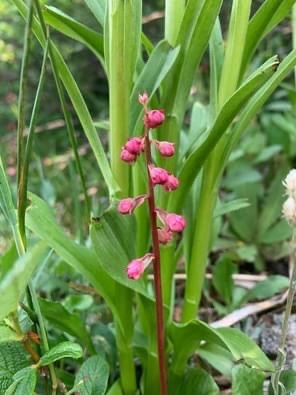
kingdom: Plantae
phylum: Tracheophyta
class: Magnoliopsida
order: Ericales
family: Ericaceae
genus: Pyrola
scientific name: Pyrola asarifolia
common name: Bog wintergreen
